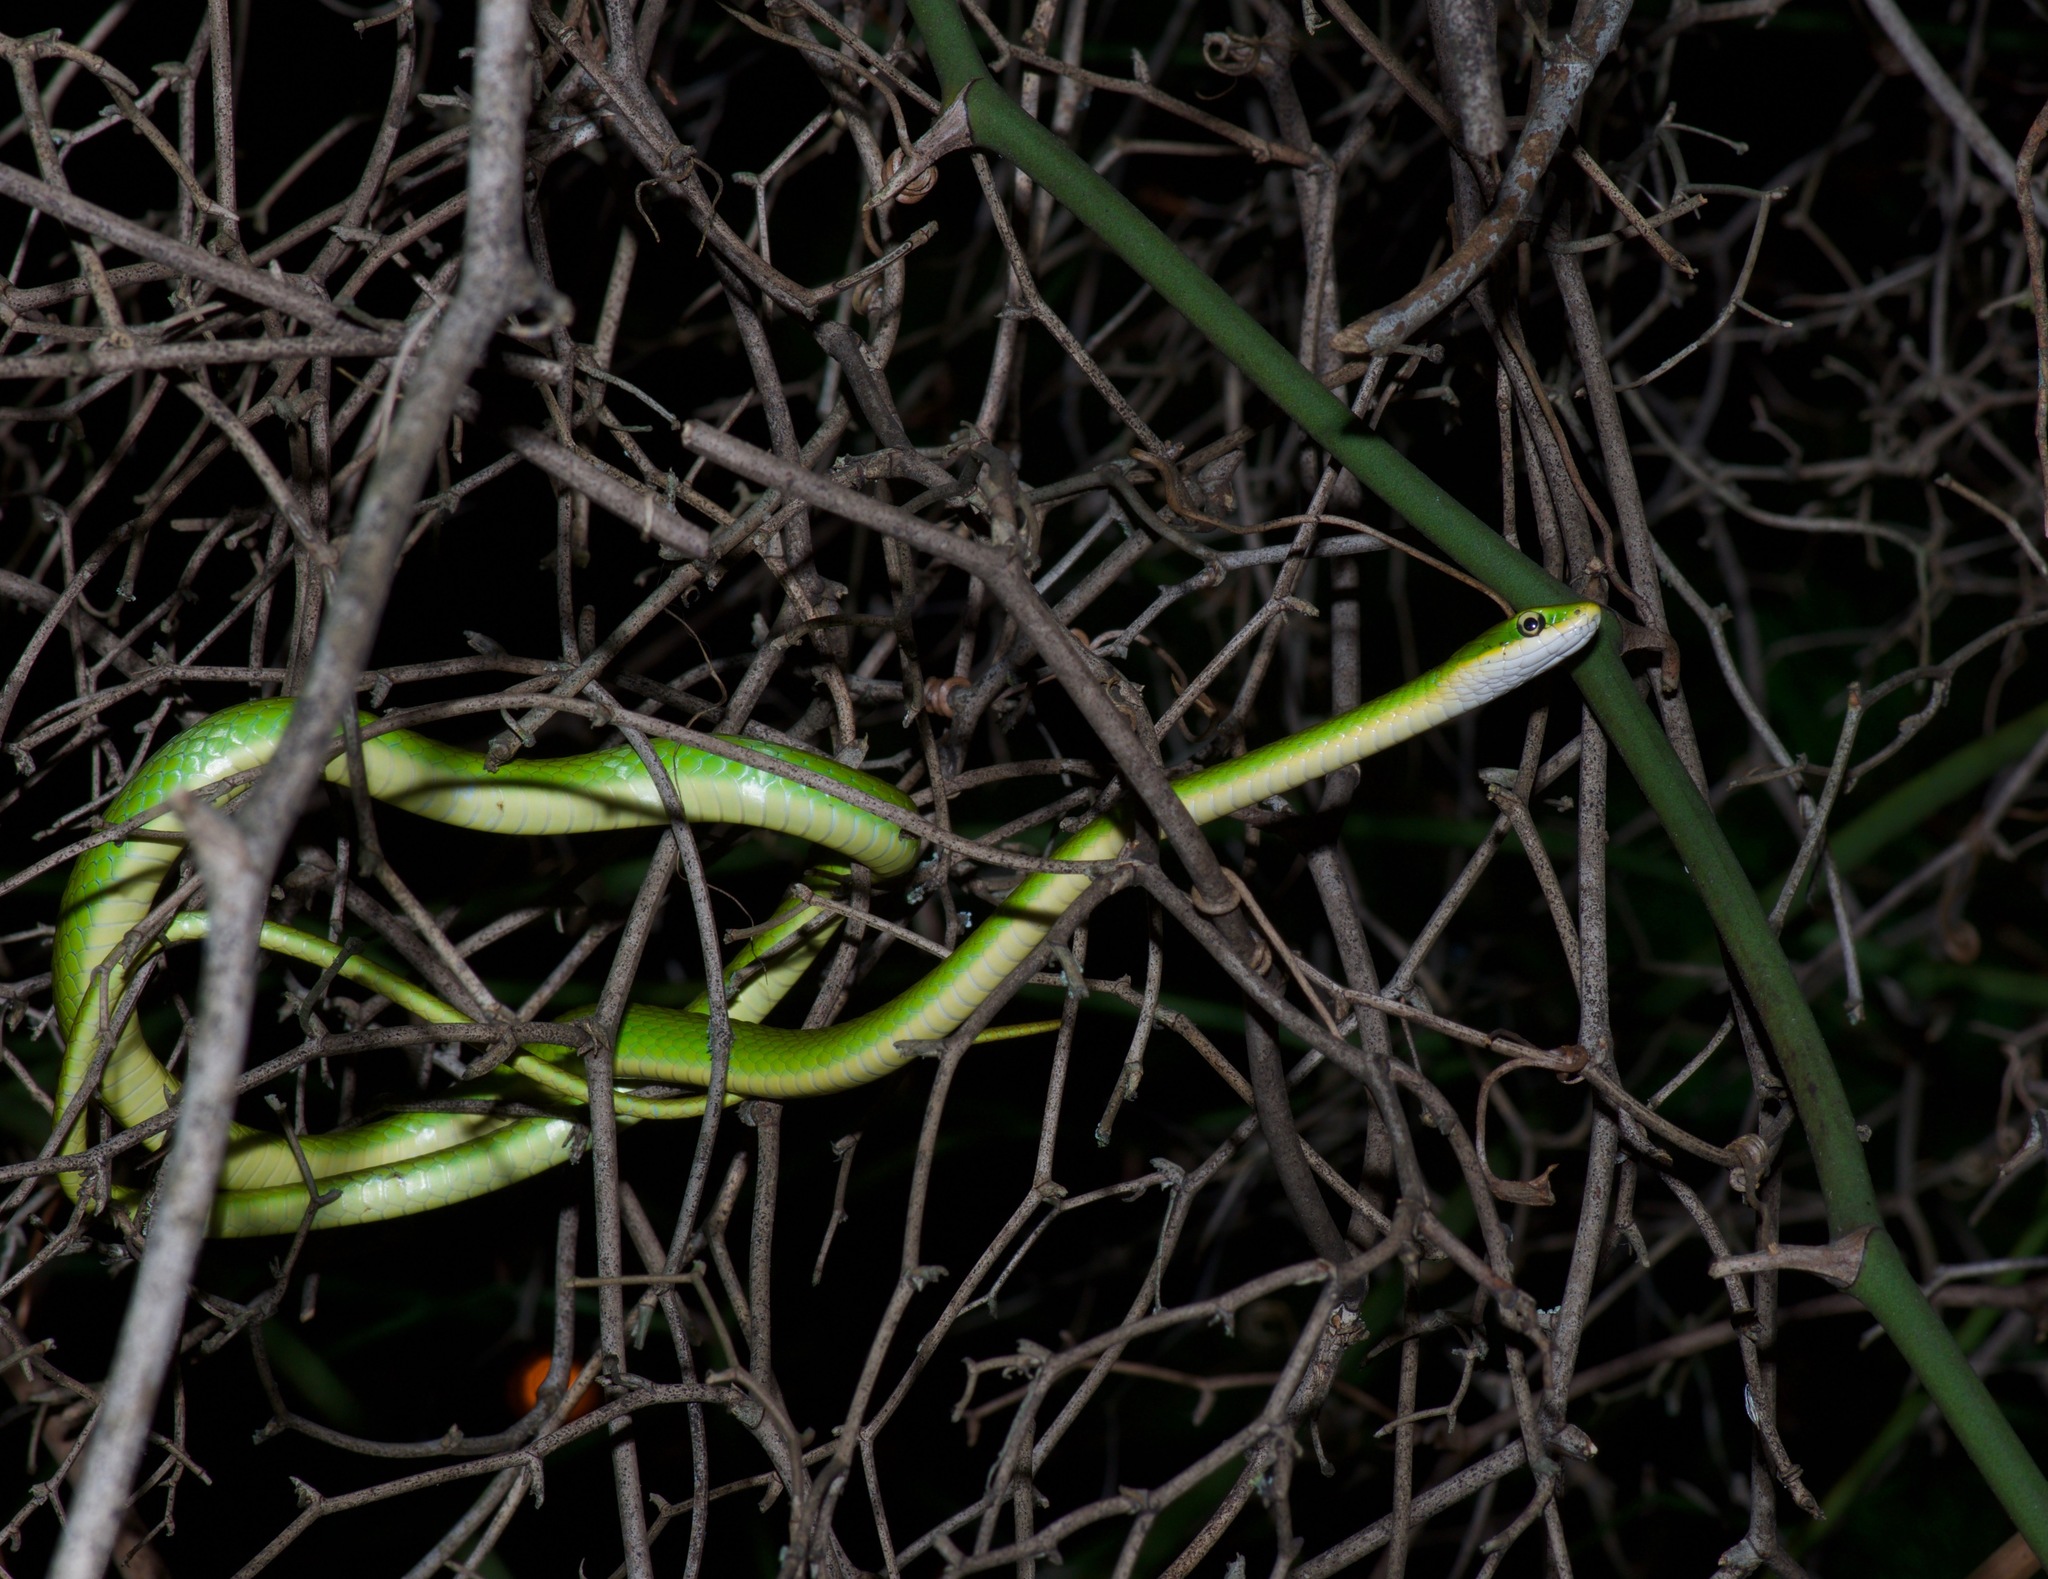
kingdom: Animalia
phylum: Chordata
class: Squamata
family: Colubridae
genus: Opheodrys
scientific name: Opheodrys aestivus
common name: Rough greensnake
